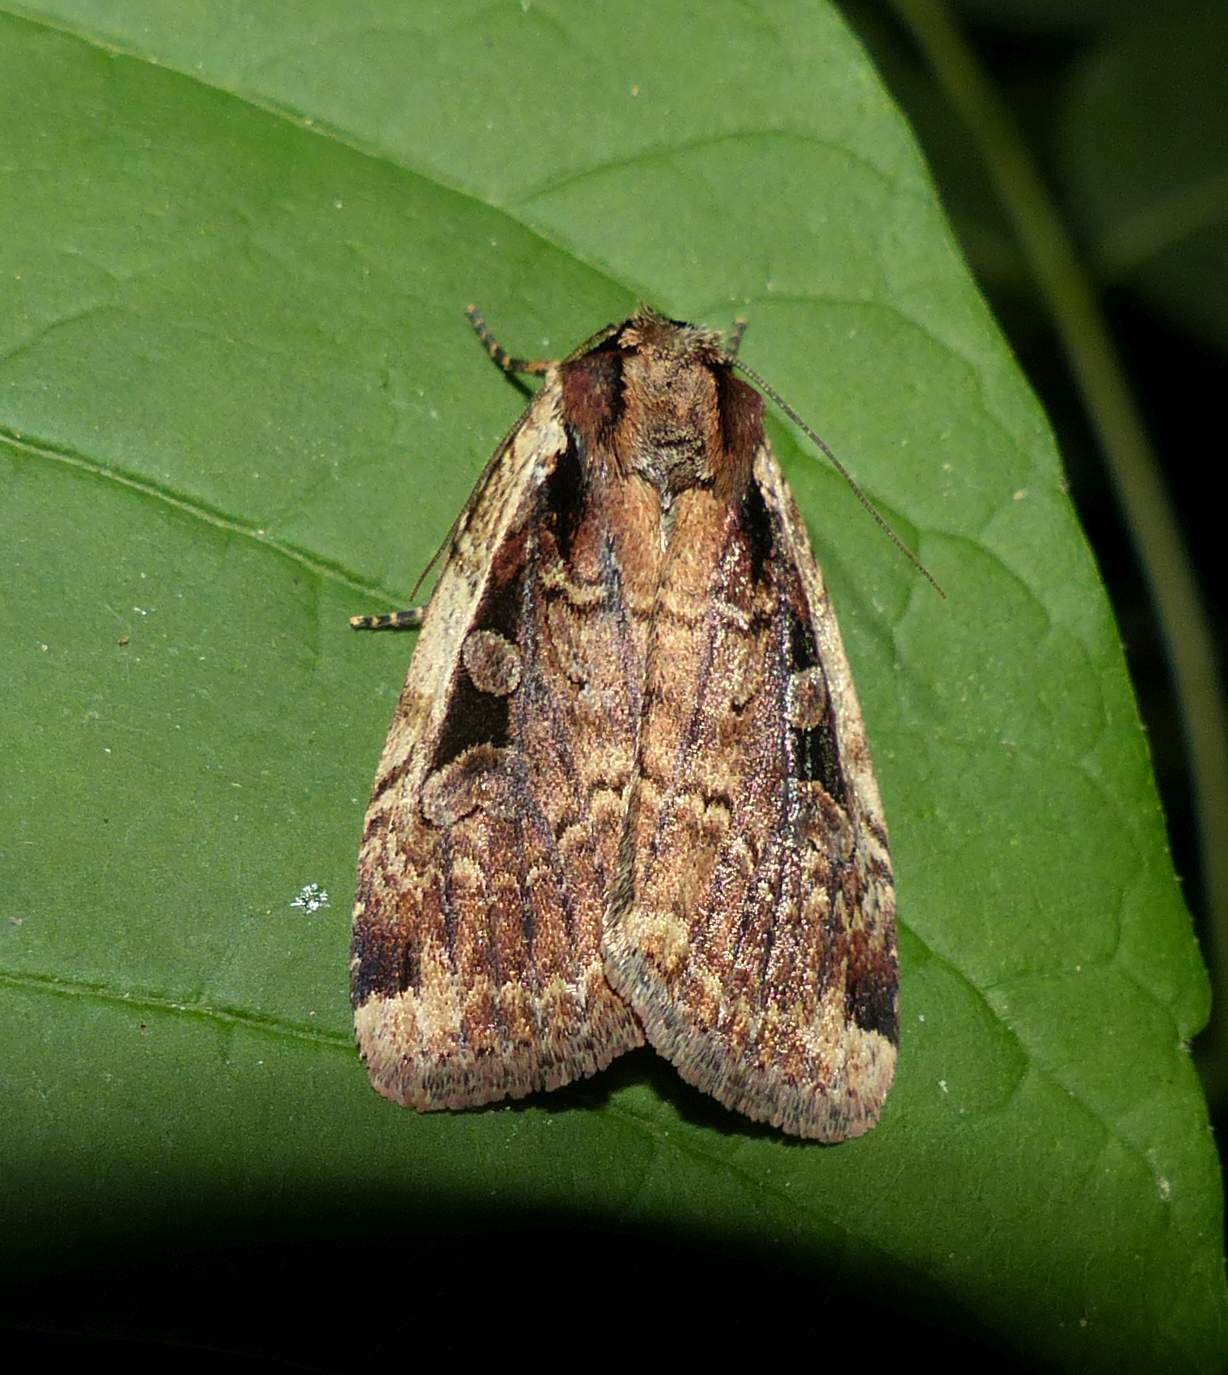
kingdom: Animalia
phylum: Arthropoda
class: Insecta
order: Lepidoptera
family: Noctuidae
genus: Eueretagrotis
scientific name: Eueretagrotis sigmoides
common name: Sigmoid dart
